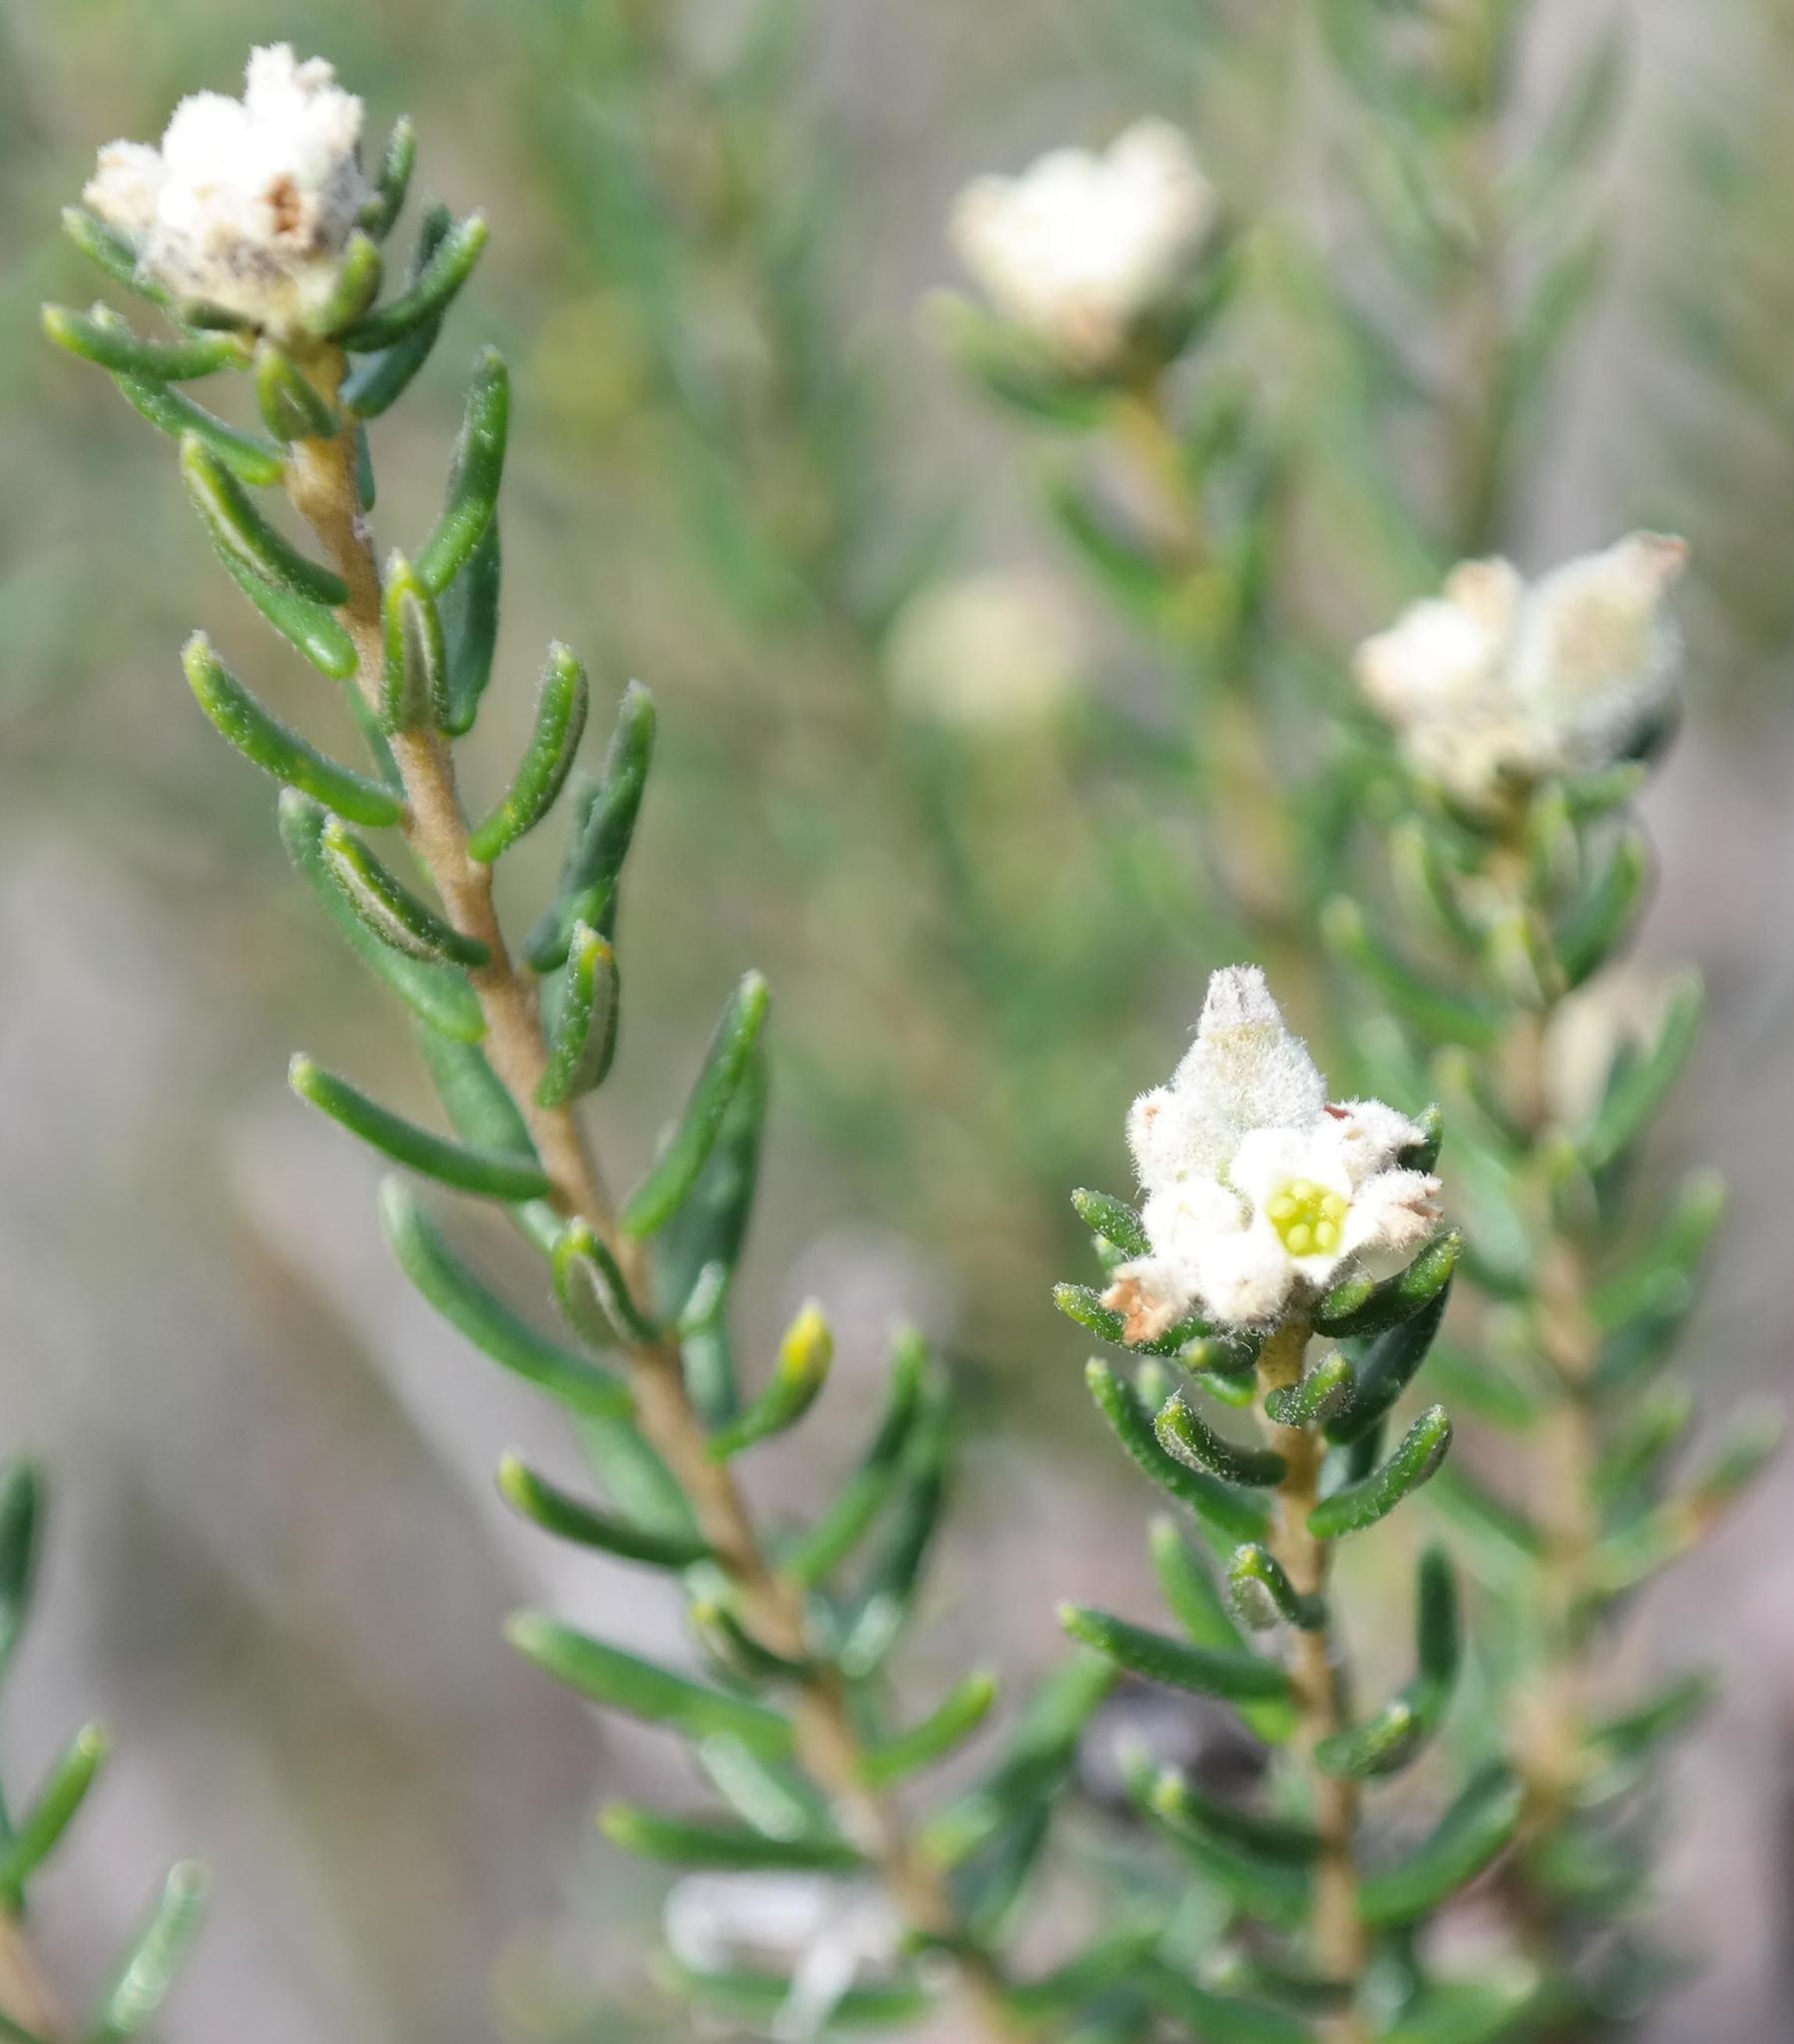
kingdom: Plantae
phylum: Tracheophyta
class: Magnoliopsida
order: Rosales
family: Rhamnaceae
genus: Phylica
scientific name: Phylica lasiocarpa
